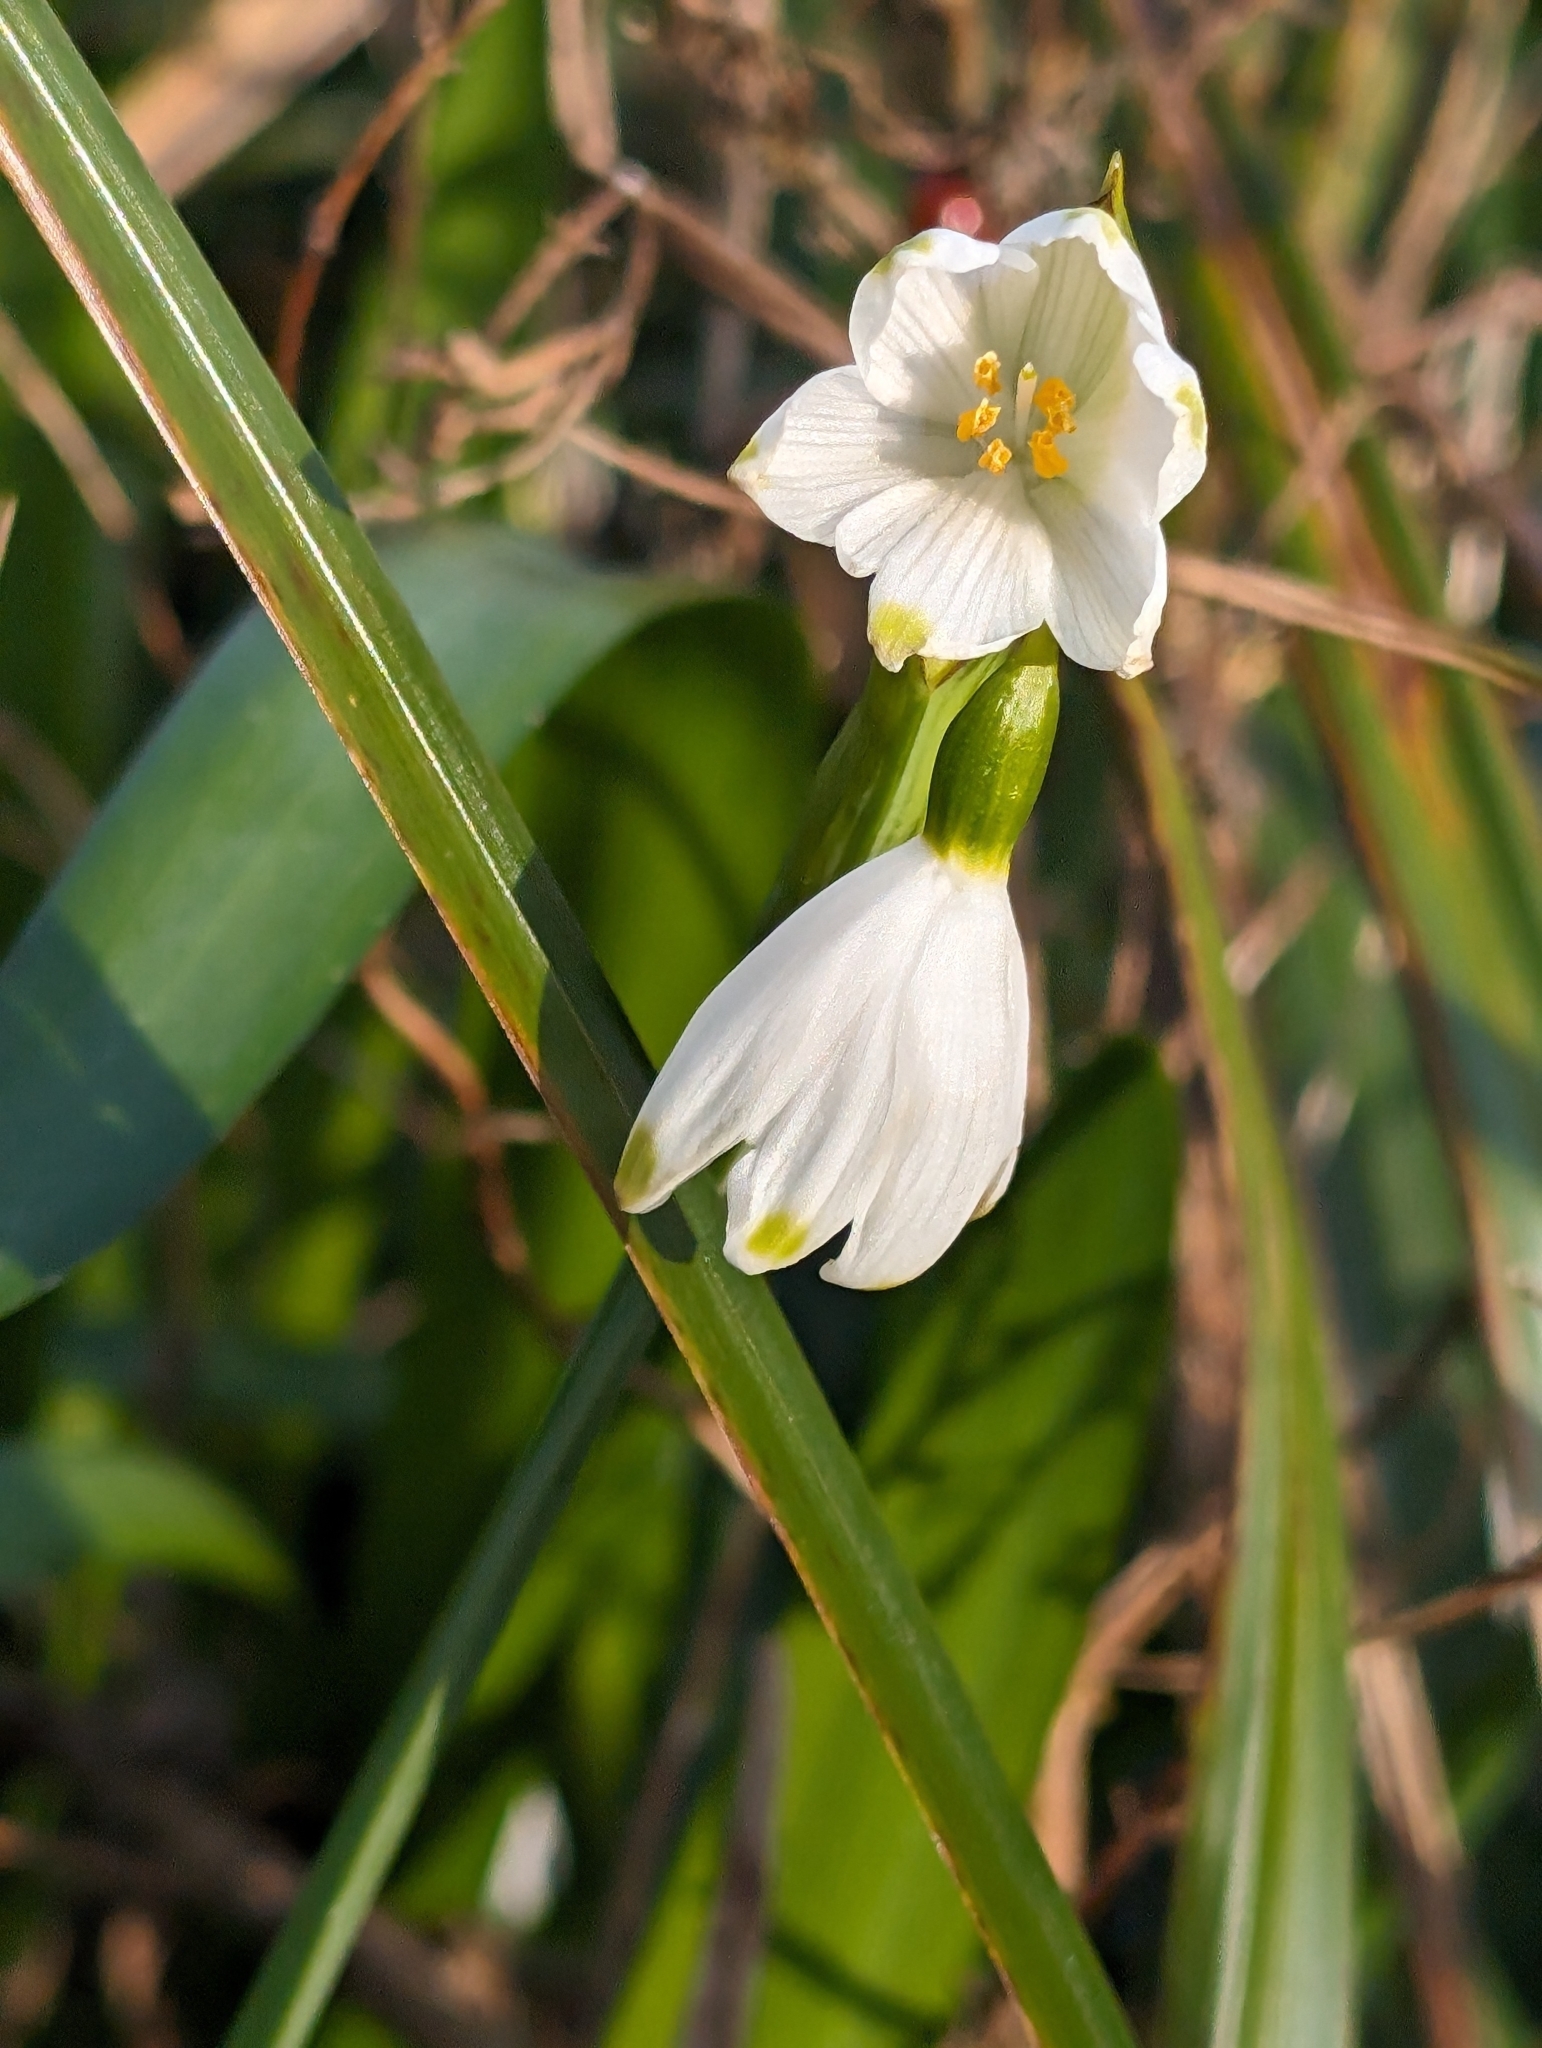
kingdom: Plantae
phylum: Tracheophyta
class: Liliopsida
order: Asparagales
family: Amaryllidaceae
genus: Leucojum
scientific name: Leucojum aestivum
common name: Summer snowflake
